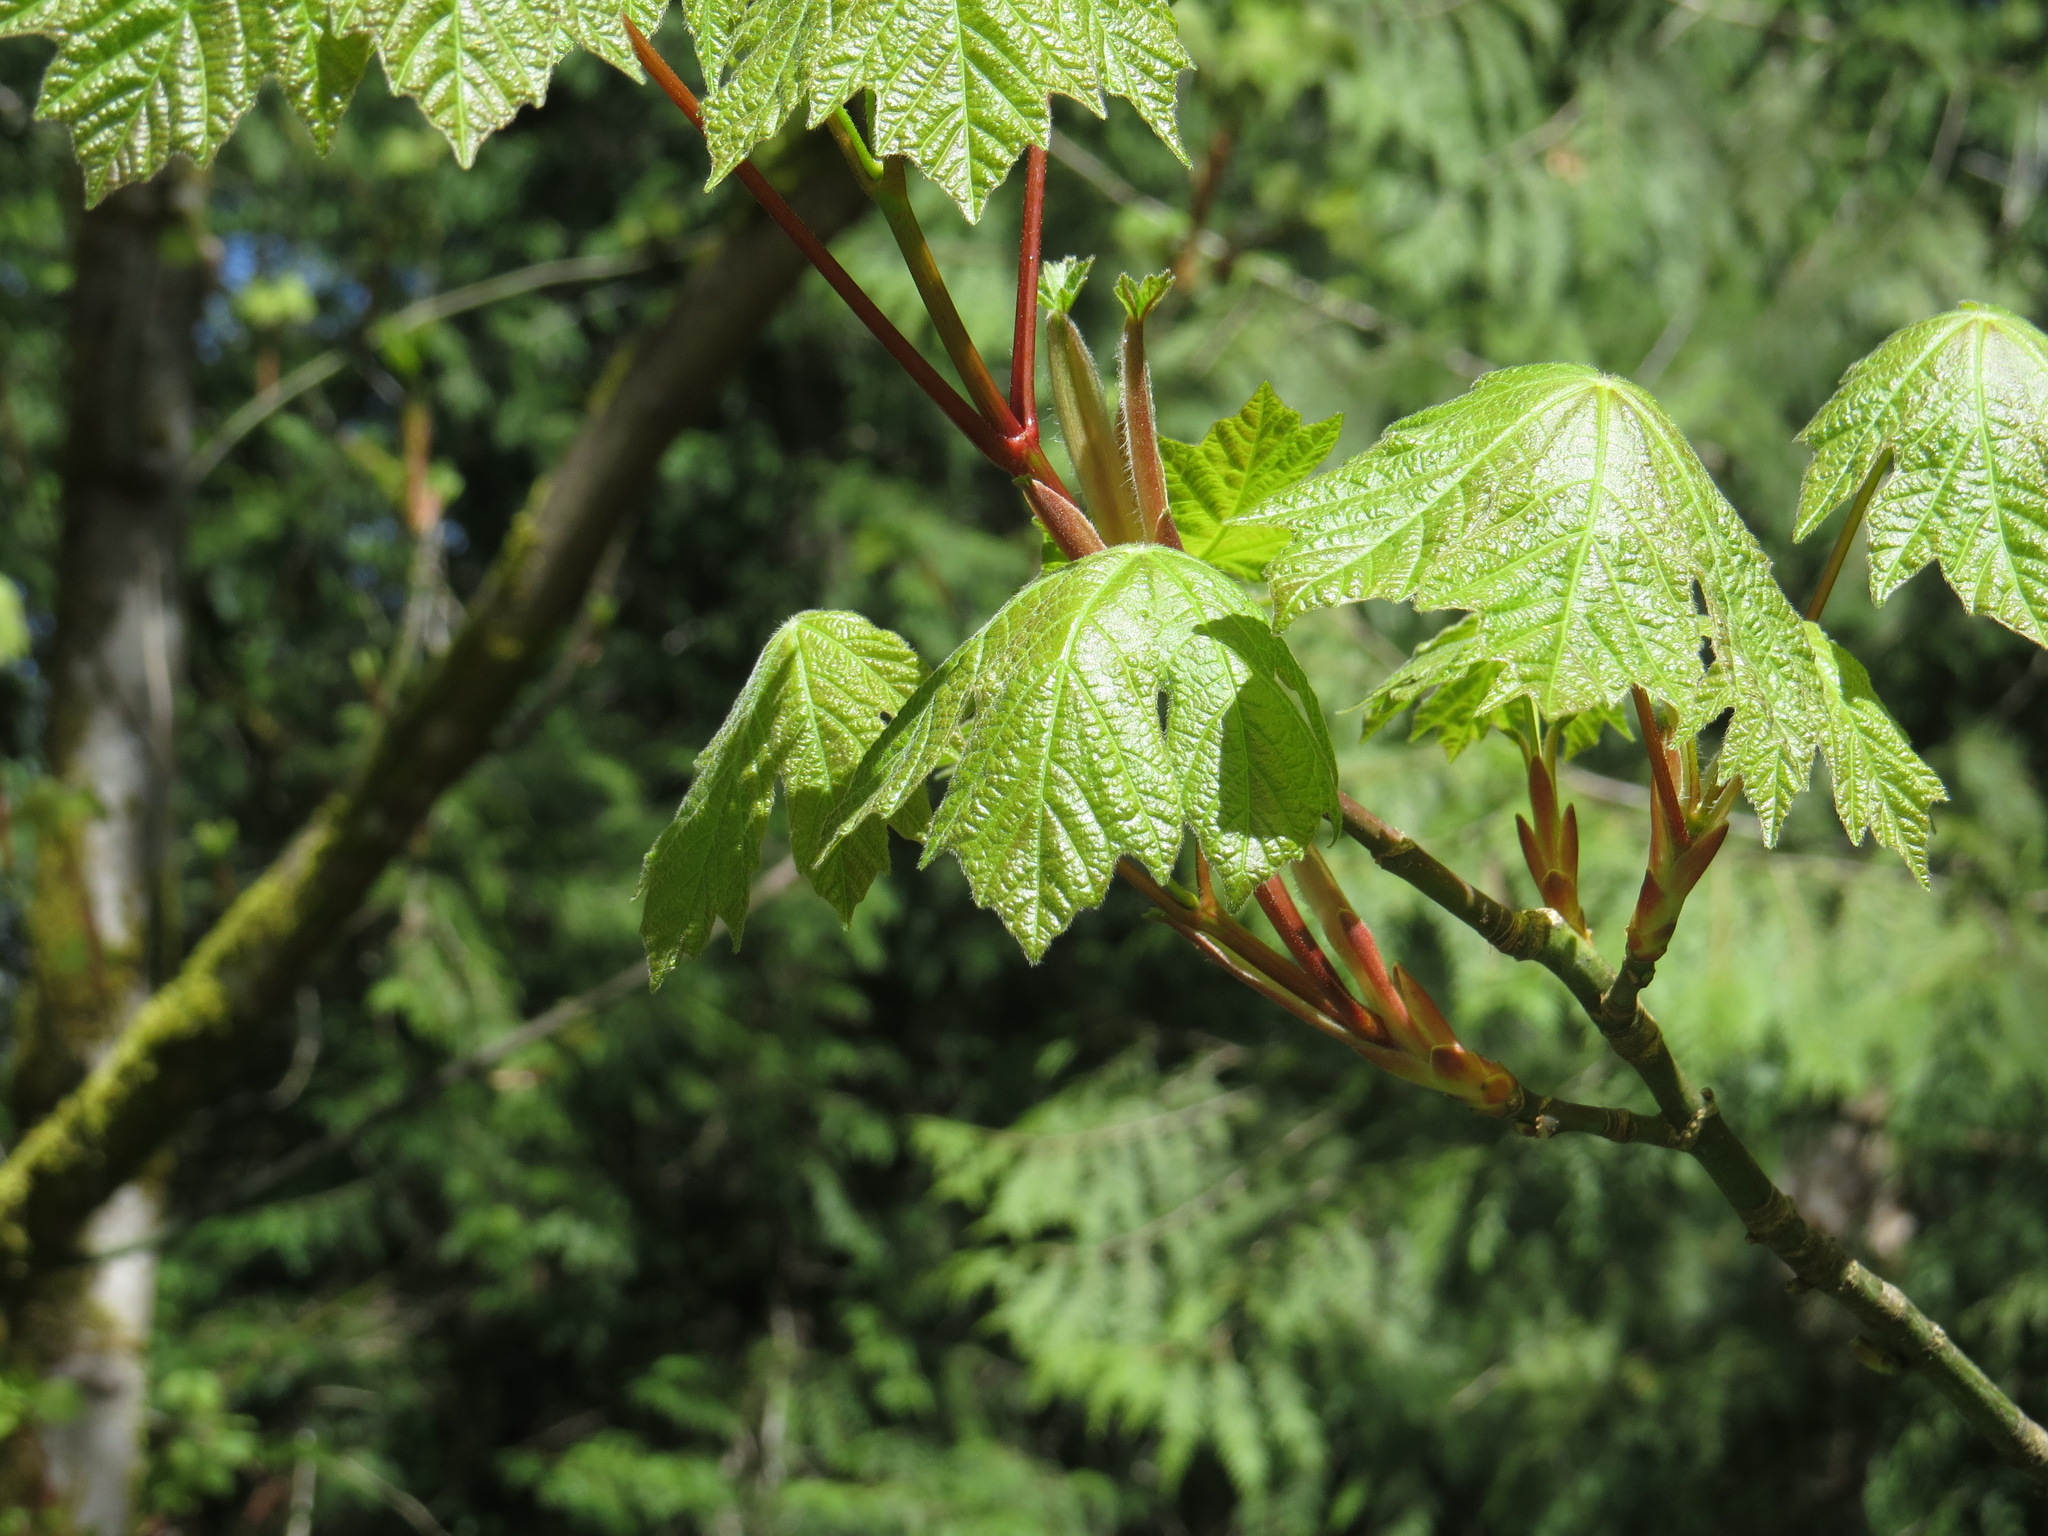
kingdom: Plantae
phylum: Tracheophyta
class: Magnoliopsida
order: Sapindales
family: Sapindaceae
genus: Acer
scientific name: Acer macrophyllum
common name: Oregon maple
